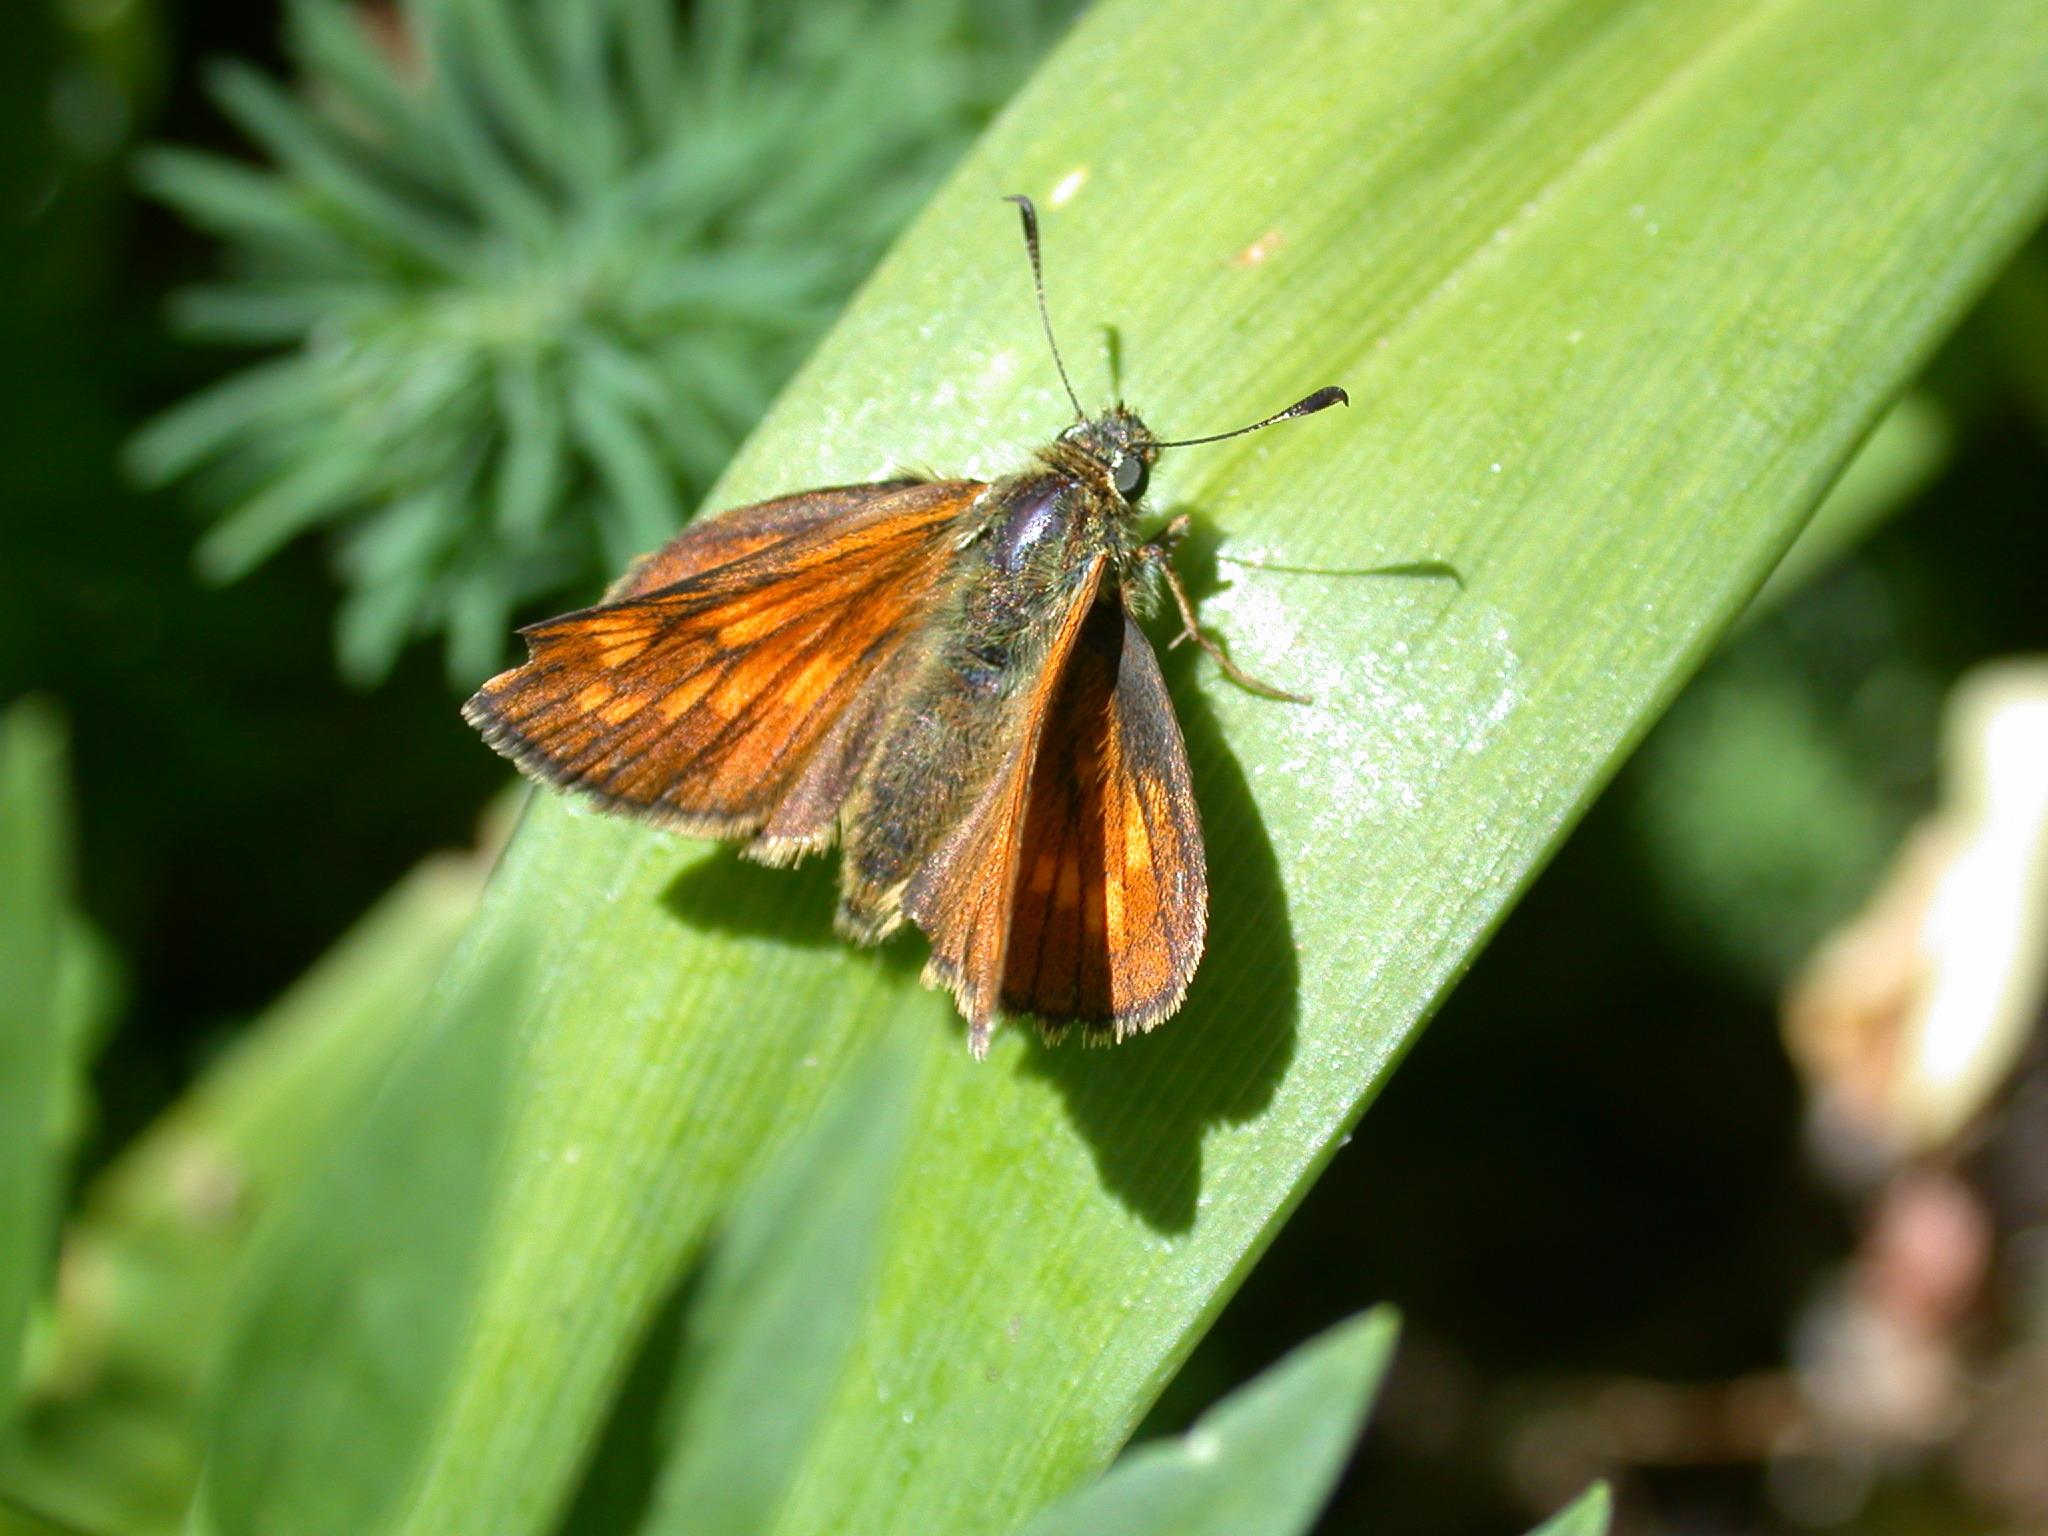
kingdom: Animalia
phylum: Arthropoda
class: Insecta
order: Lepidoptera
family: Hesperiidae
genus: Ochlodes
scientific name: Ochlodes venata
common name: Large skipper
